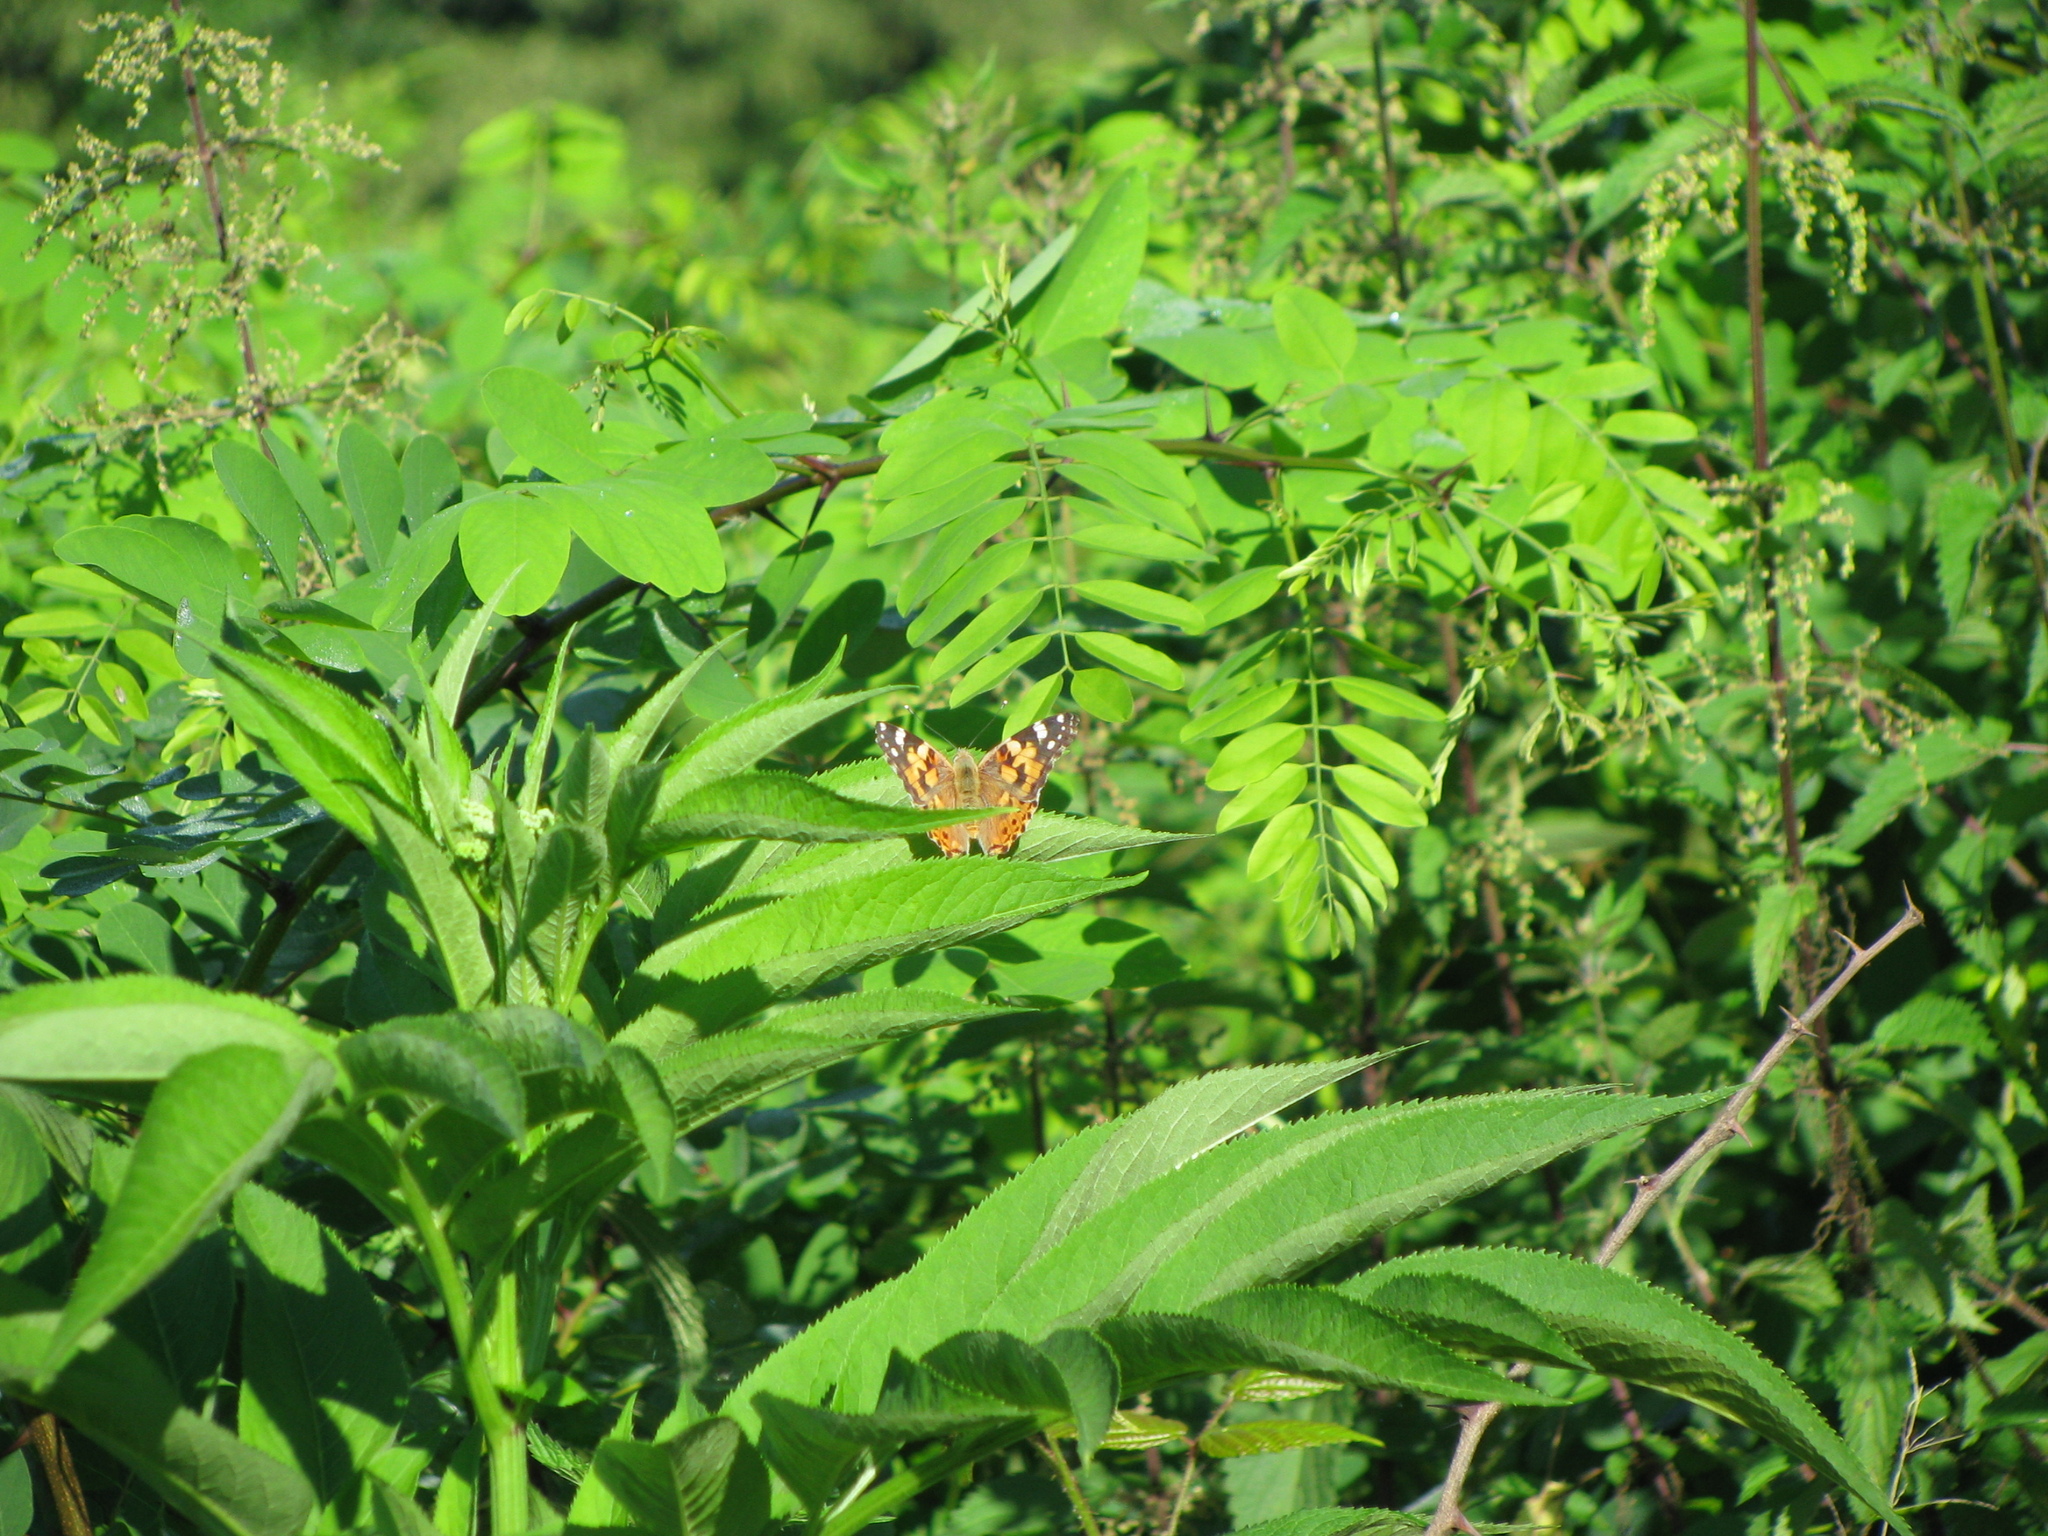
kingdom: Animalia
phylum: Arthropoda
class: Insecta
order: Lepidoptera
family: Nymphalidae
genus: Vanessa
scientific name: Vanessa cardui
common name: Painted lady
